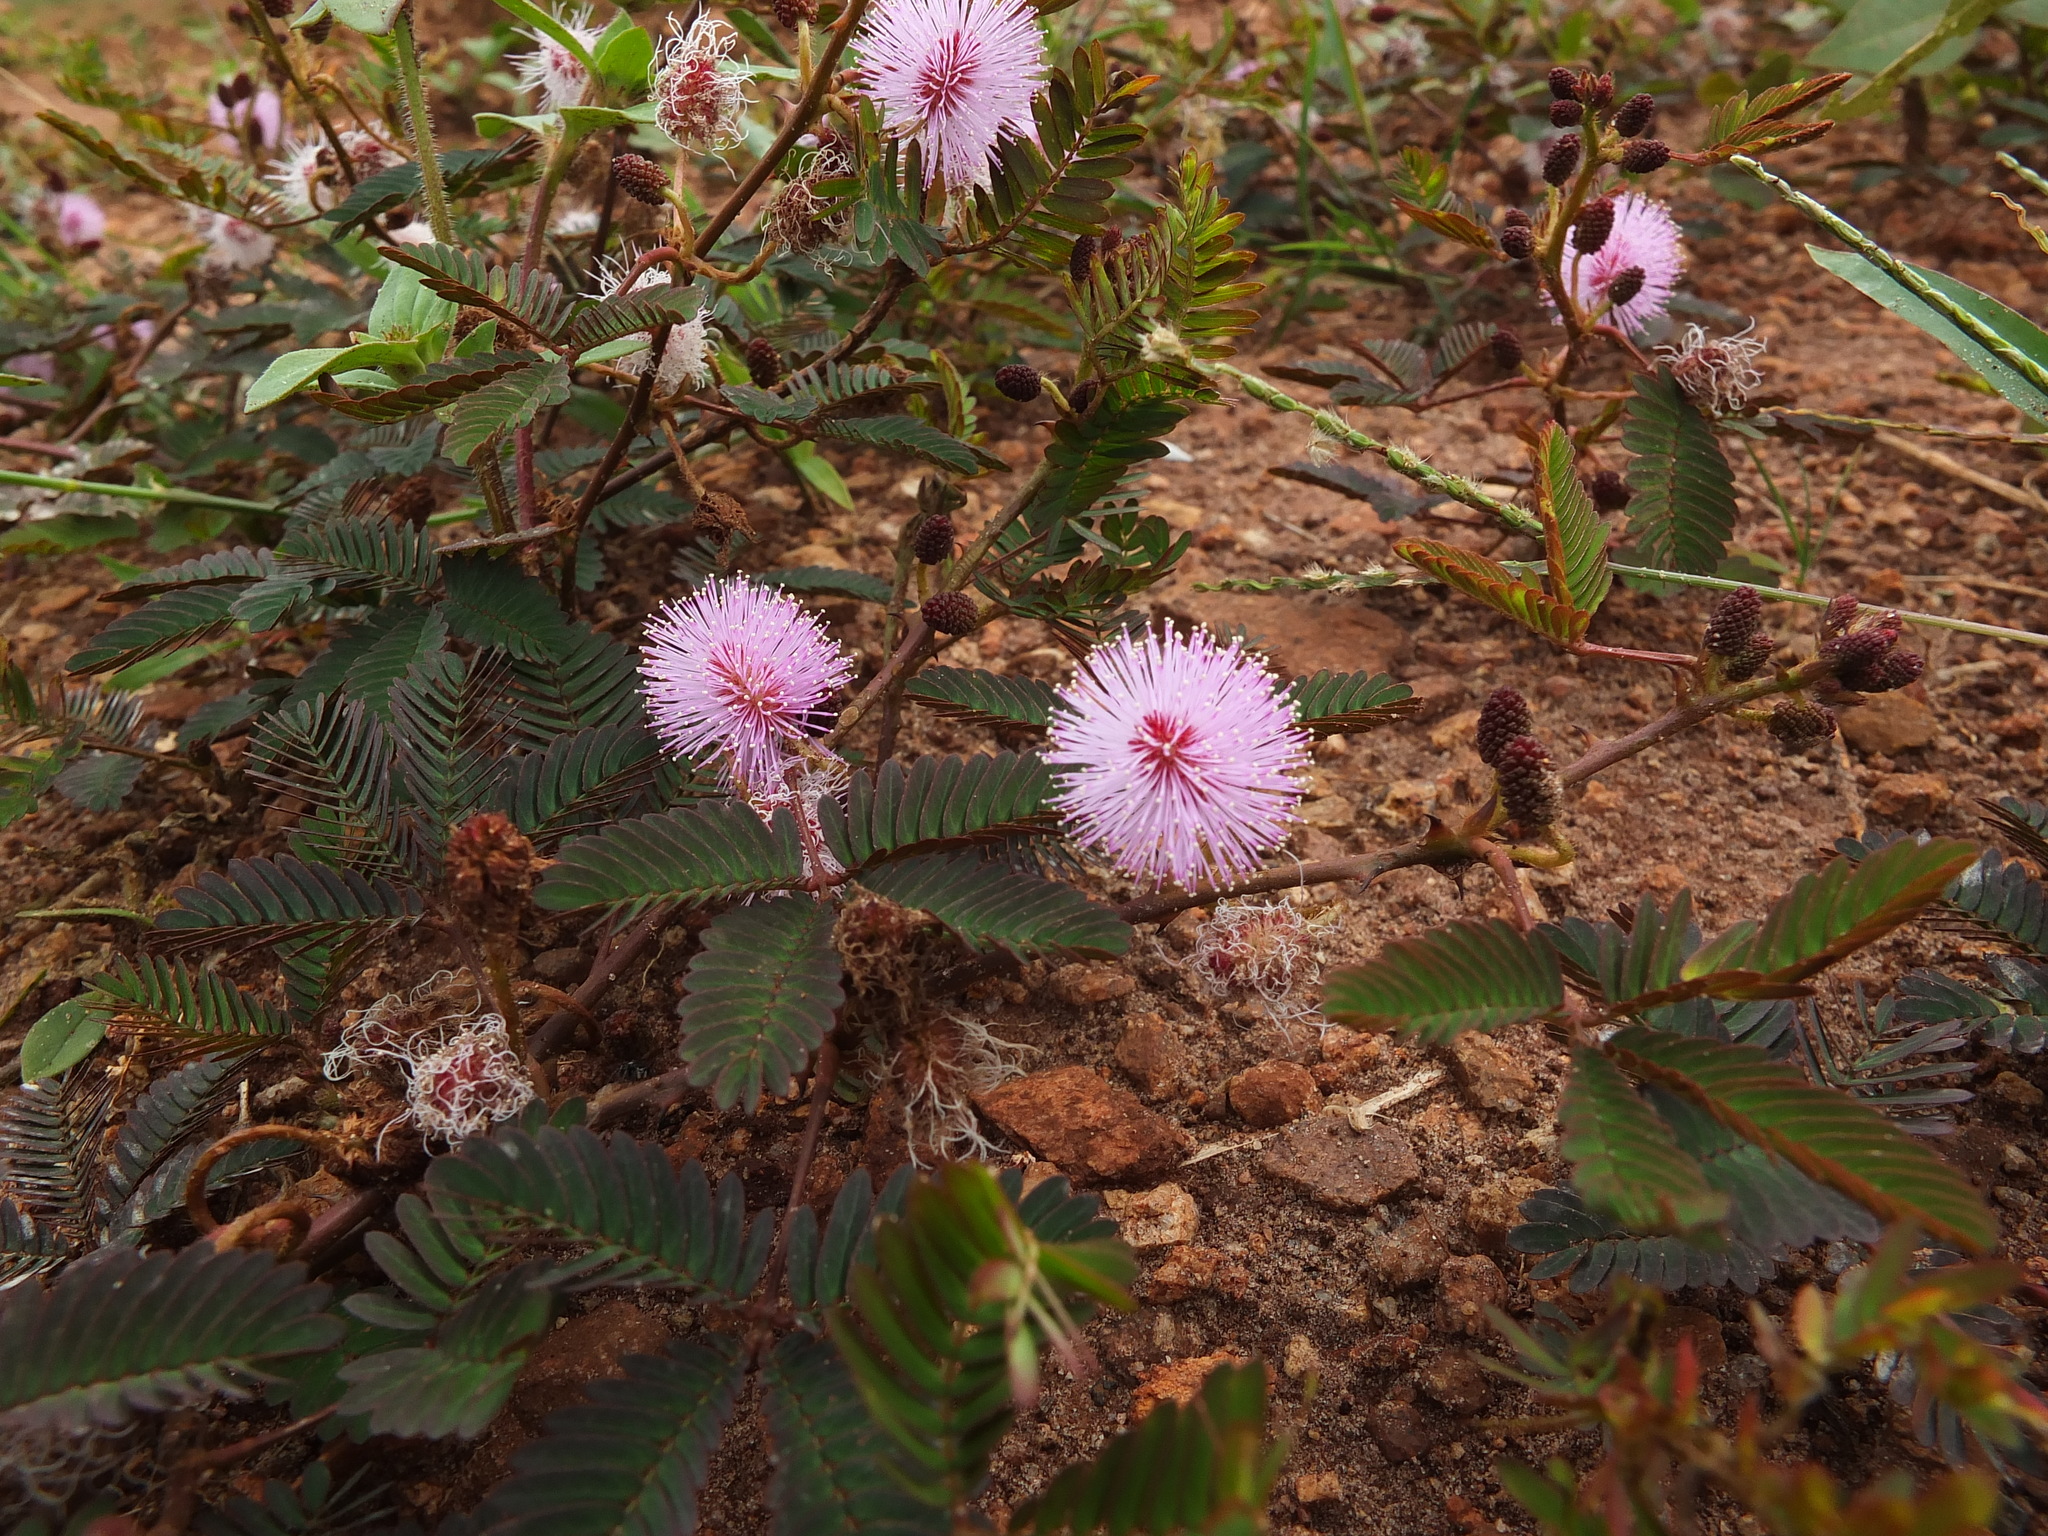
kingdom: Plantae
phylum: Tracheophyta
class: Magnoliopsida
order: Fabales
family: Fabaceae
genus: Mimosa
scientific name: Mimosa pudica
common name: Sensitive plant
